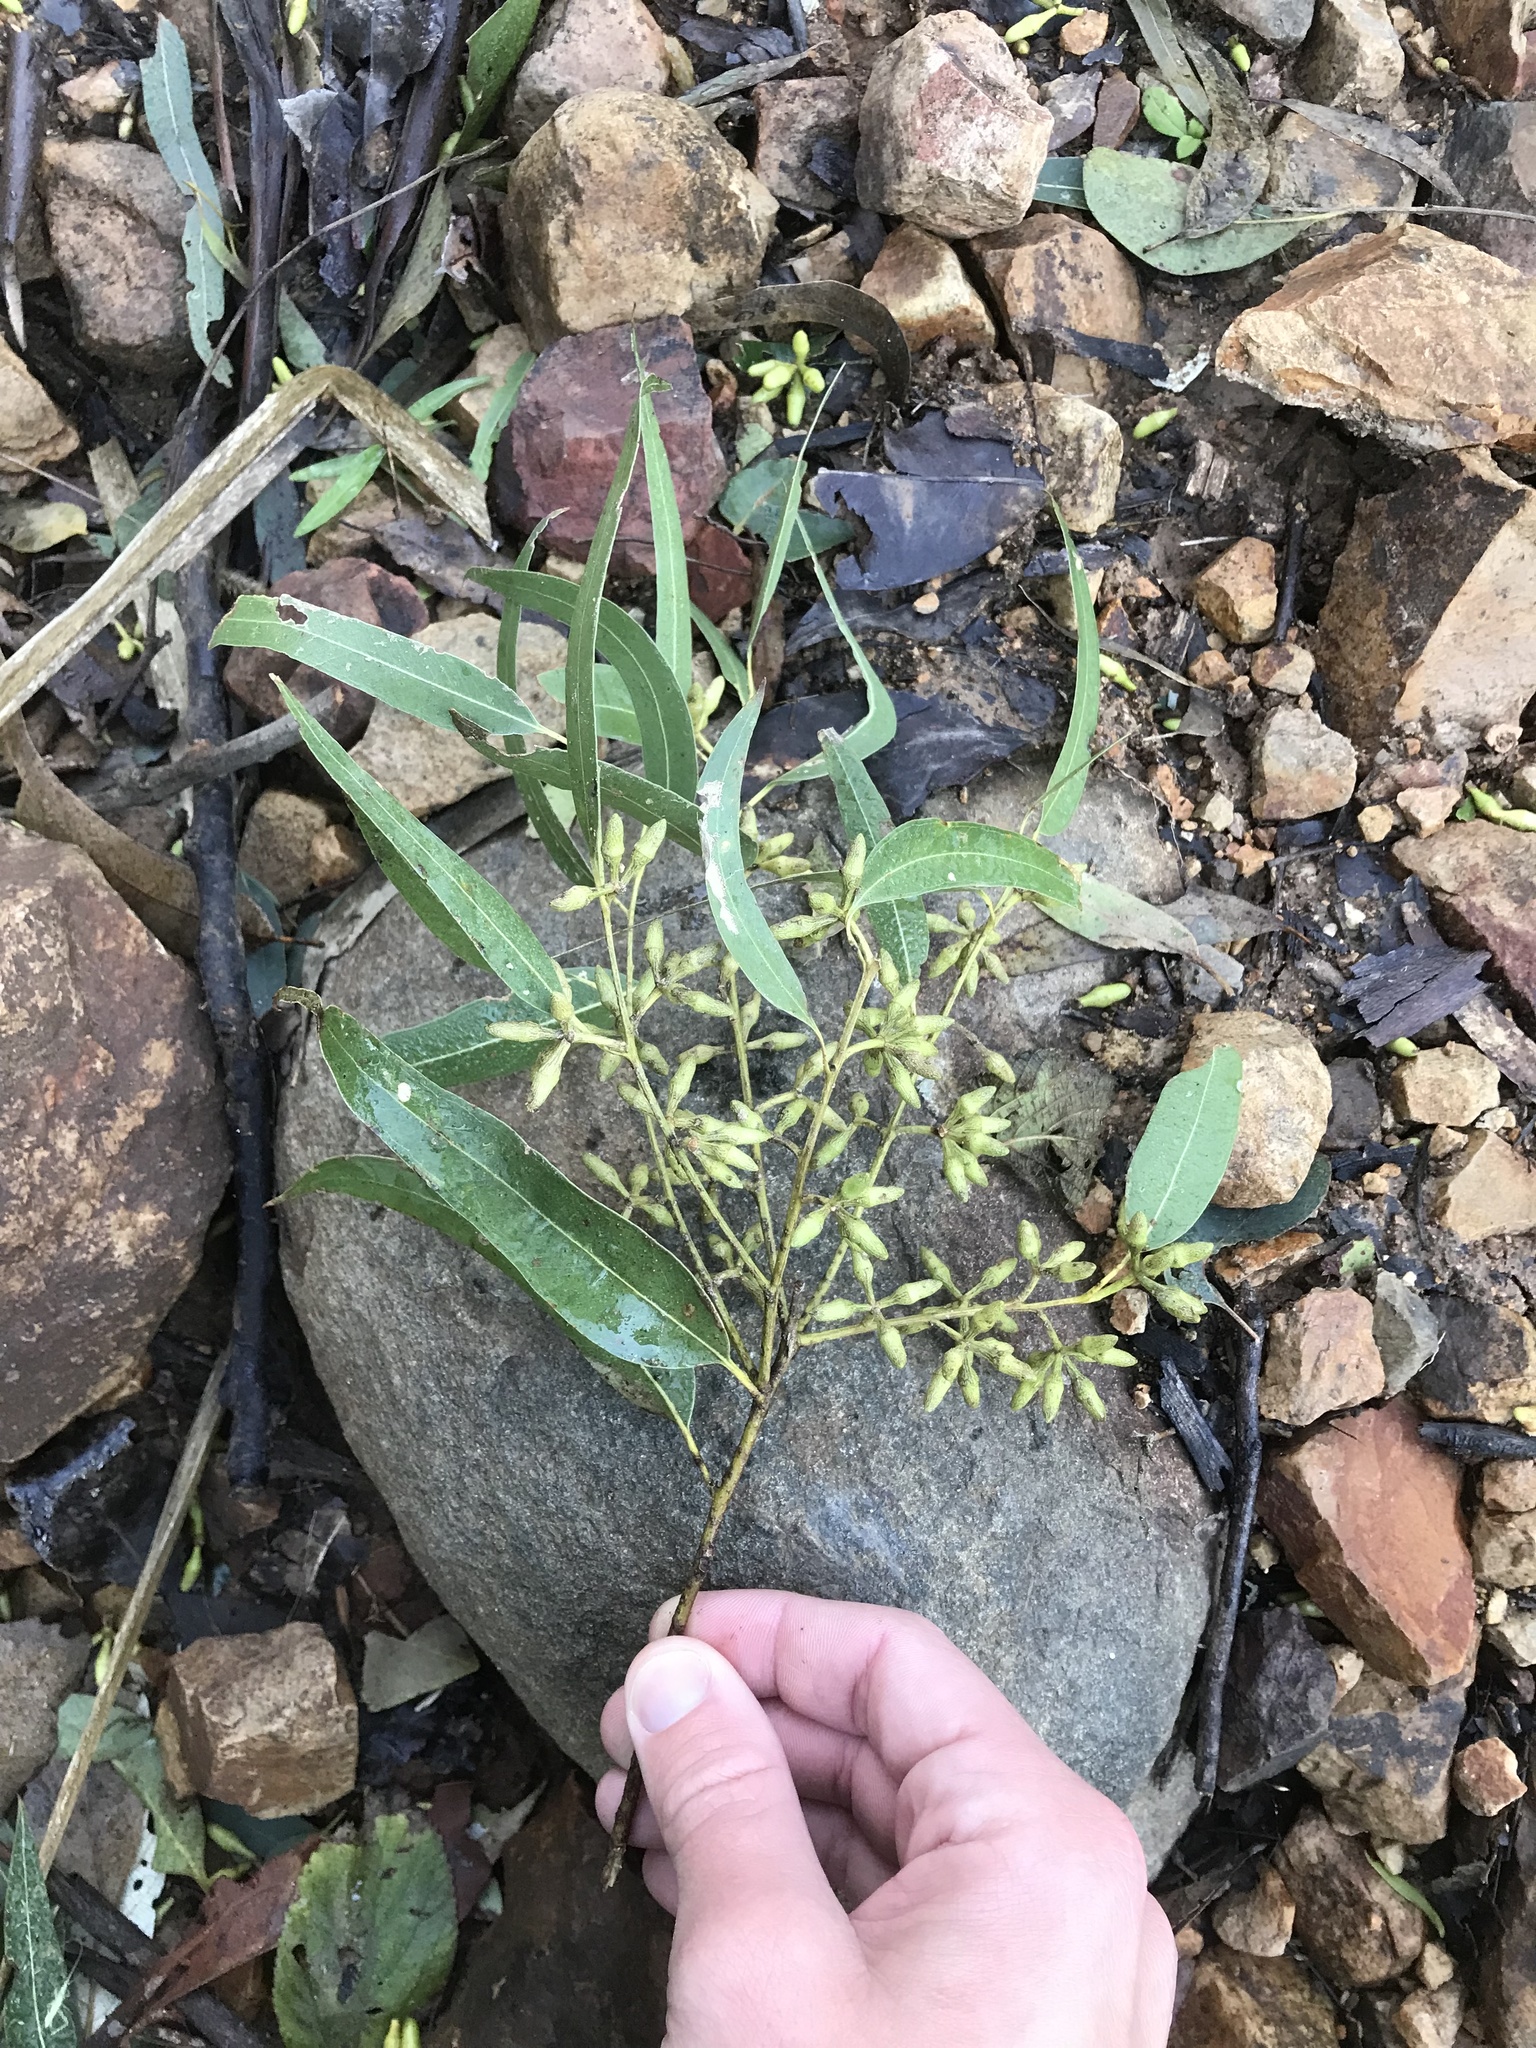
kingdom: Plantae
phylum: Tracheophyta
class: Magnoliopsida
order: Myrtales
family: Myrtaceae
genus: Eucalyptus
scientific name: Eucalyptus tereticornis
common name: Forest redgum
